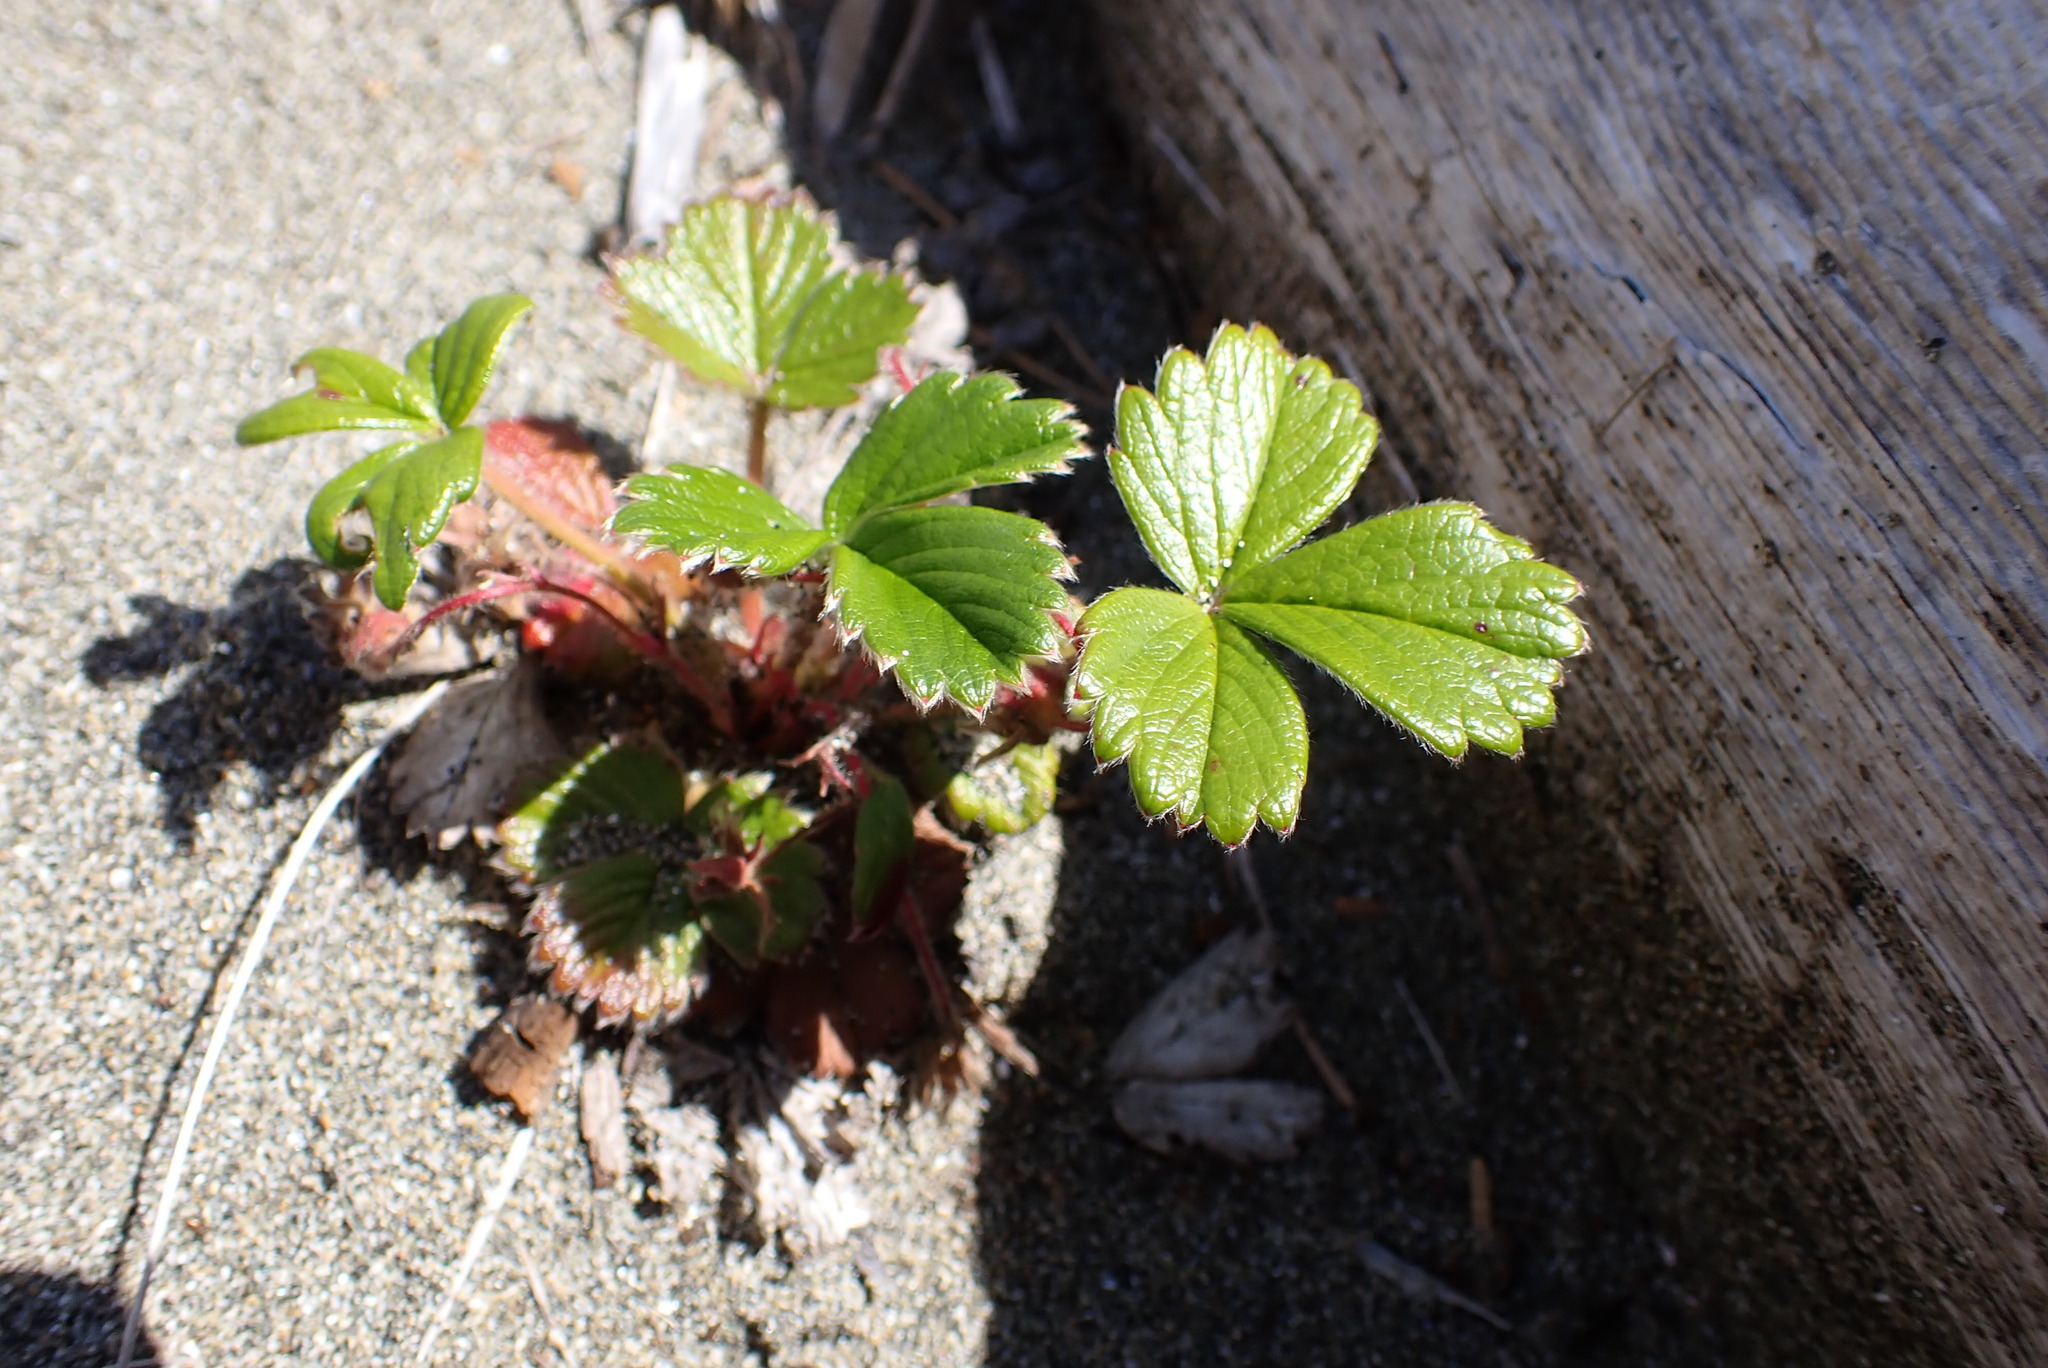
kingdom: Plantae
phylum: Tracheophyta
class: Magnoliopsida
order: Rosales
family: Rosaceae
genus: Fragaria
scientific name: Fragaria chiloensis
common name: Beach strawberry
